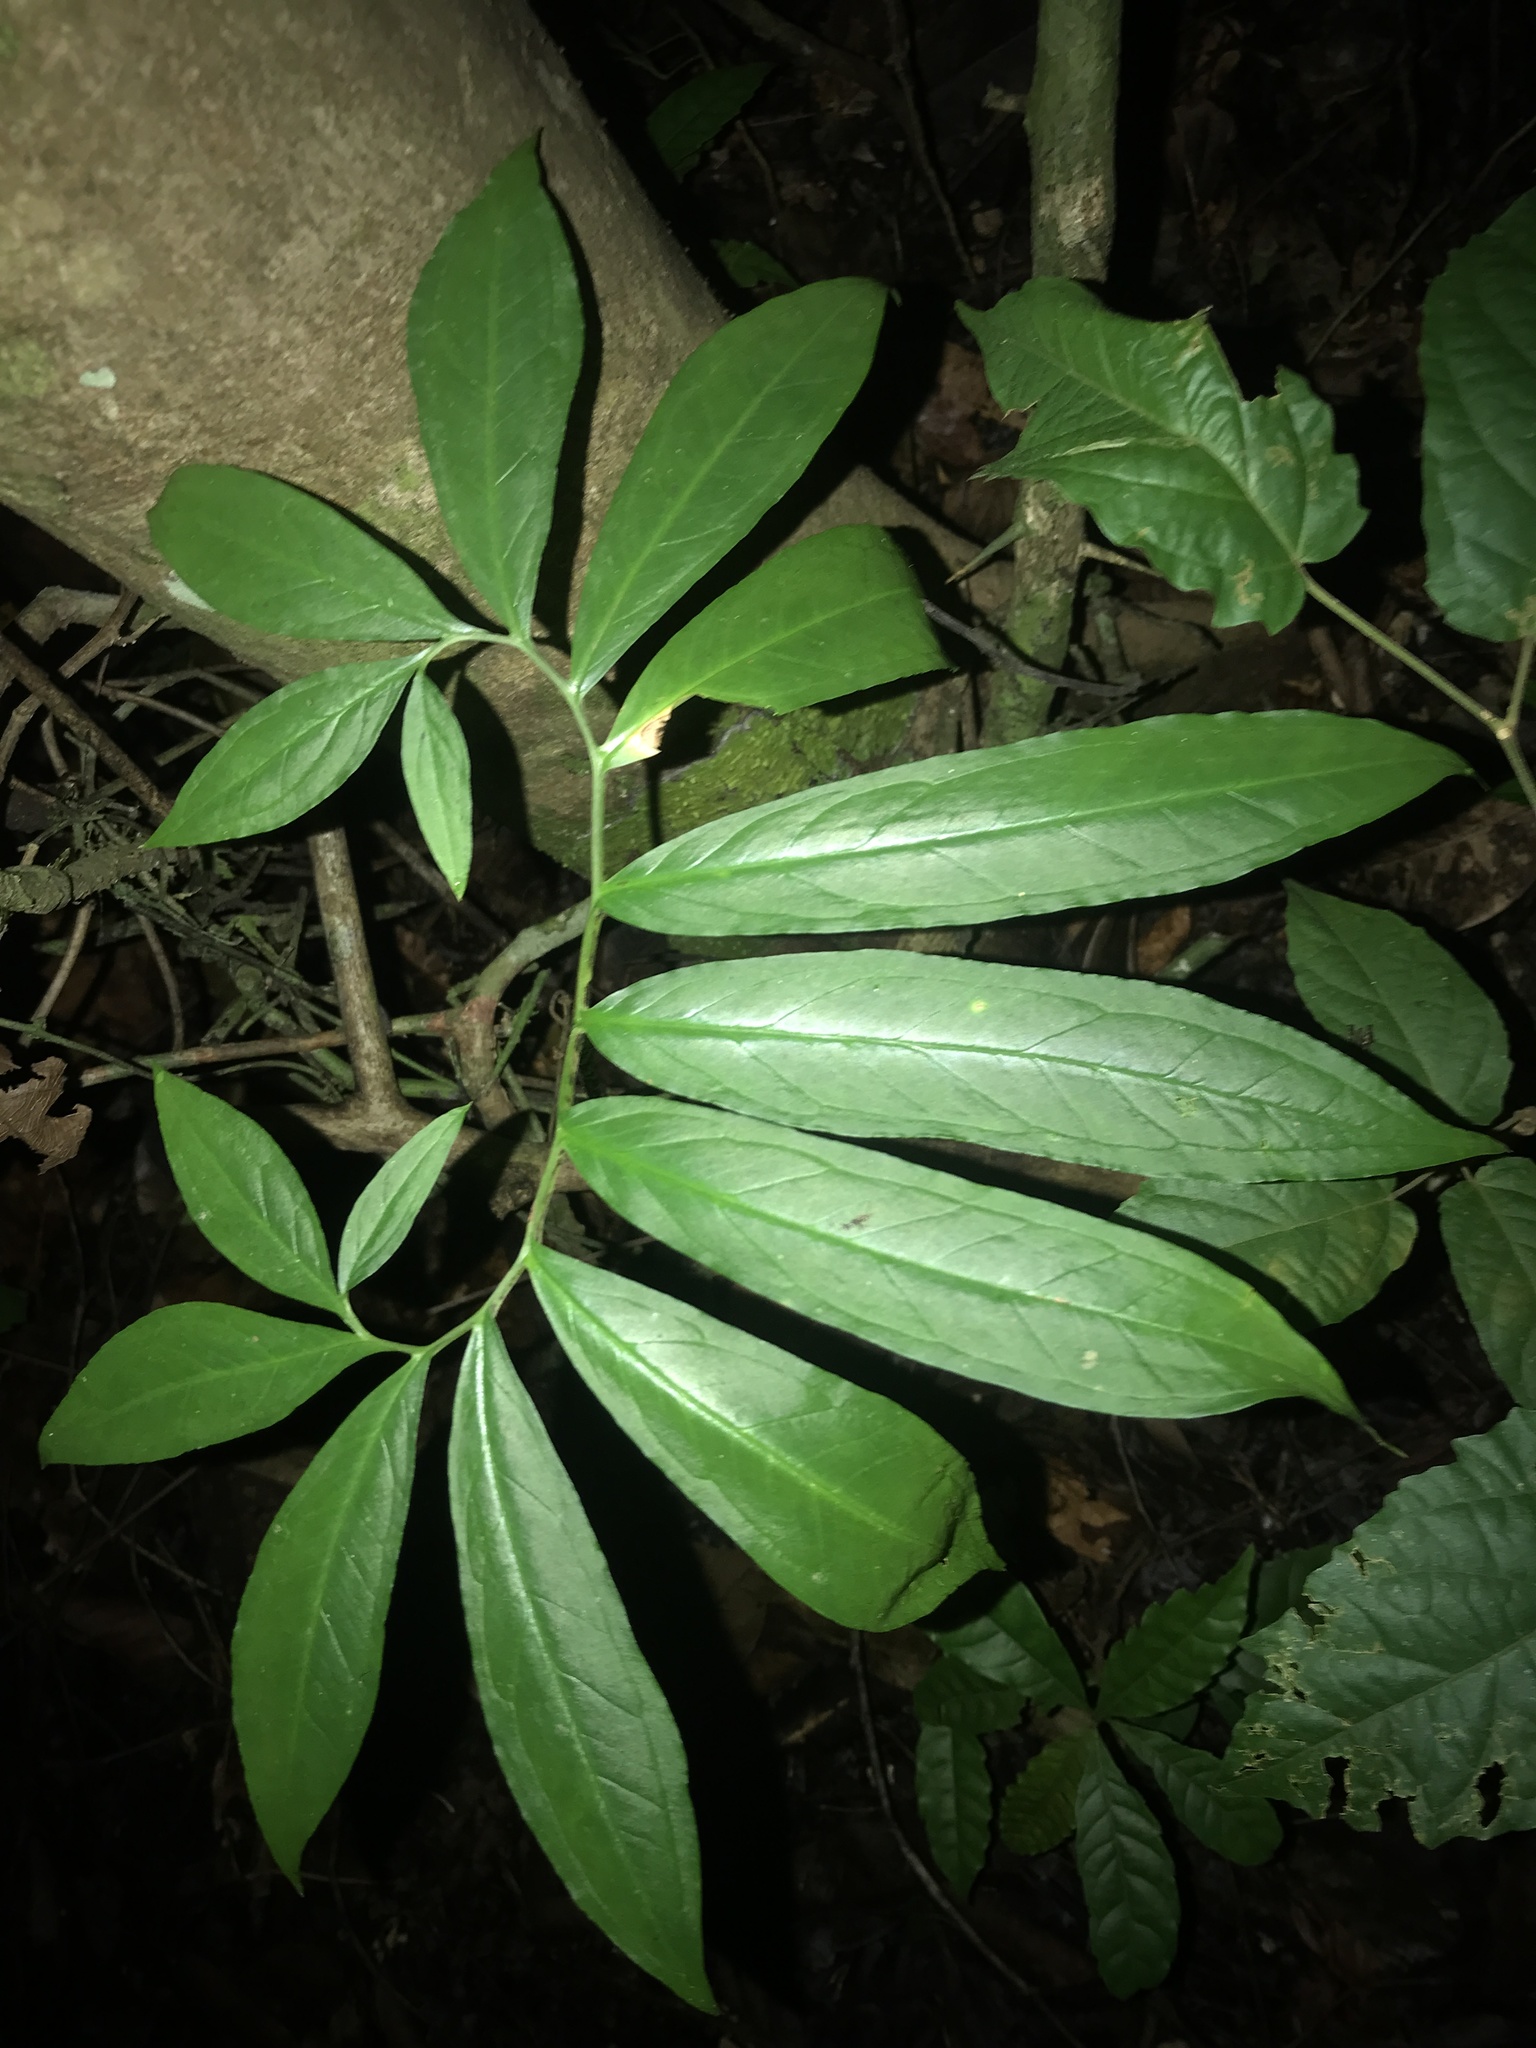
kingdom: Plantae
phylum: Tracheophyta
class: Liliopsida
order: Alismatales
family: Araceae
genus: Xanthosoma
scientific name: Xanthosoma helleborifolium
